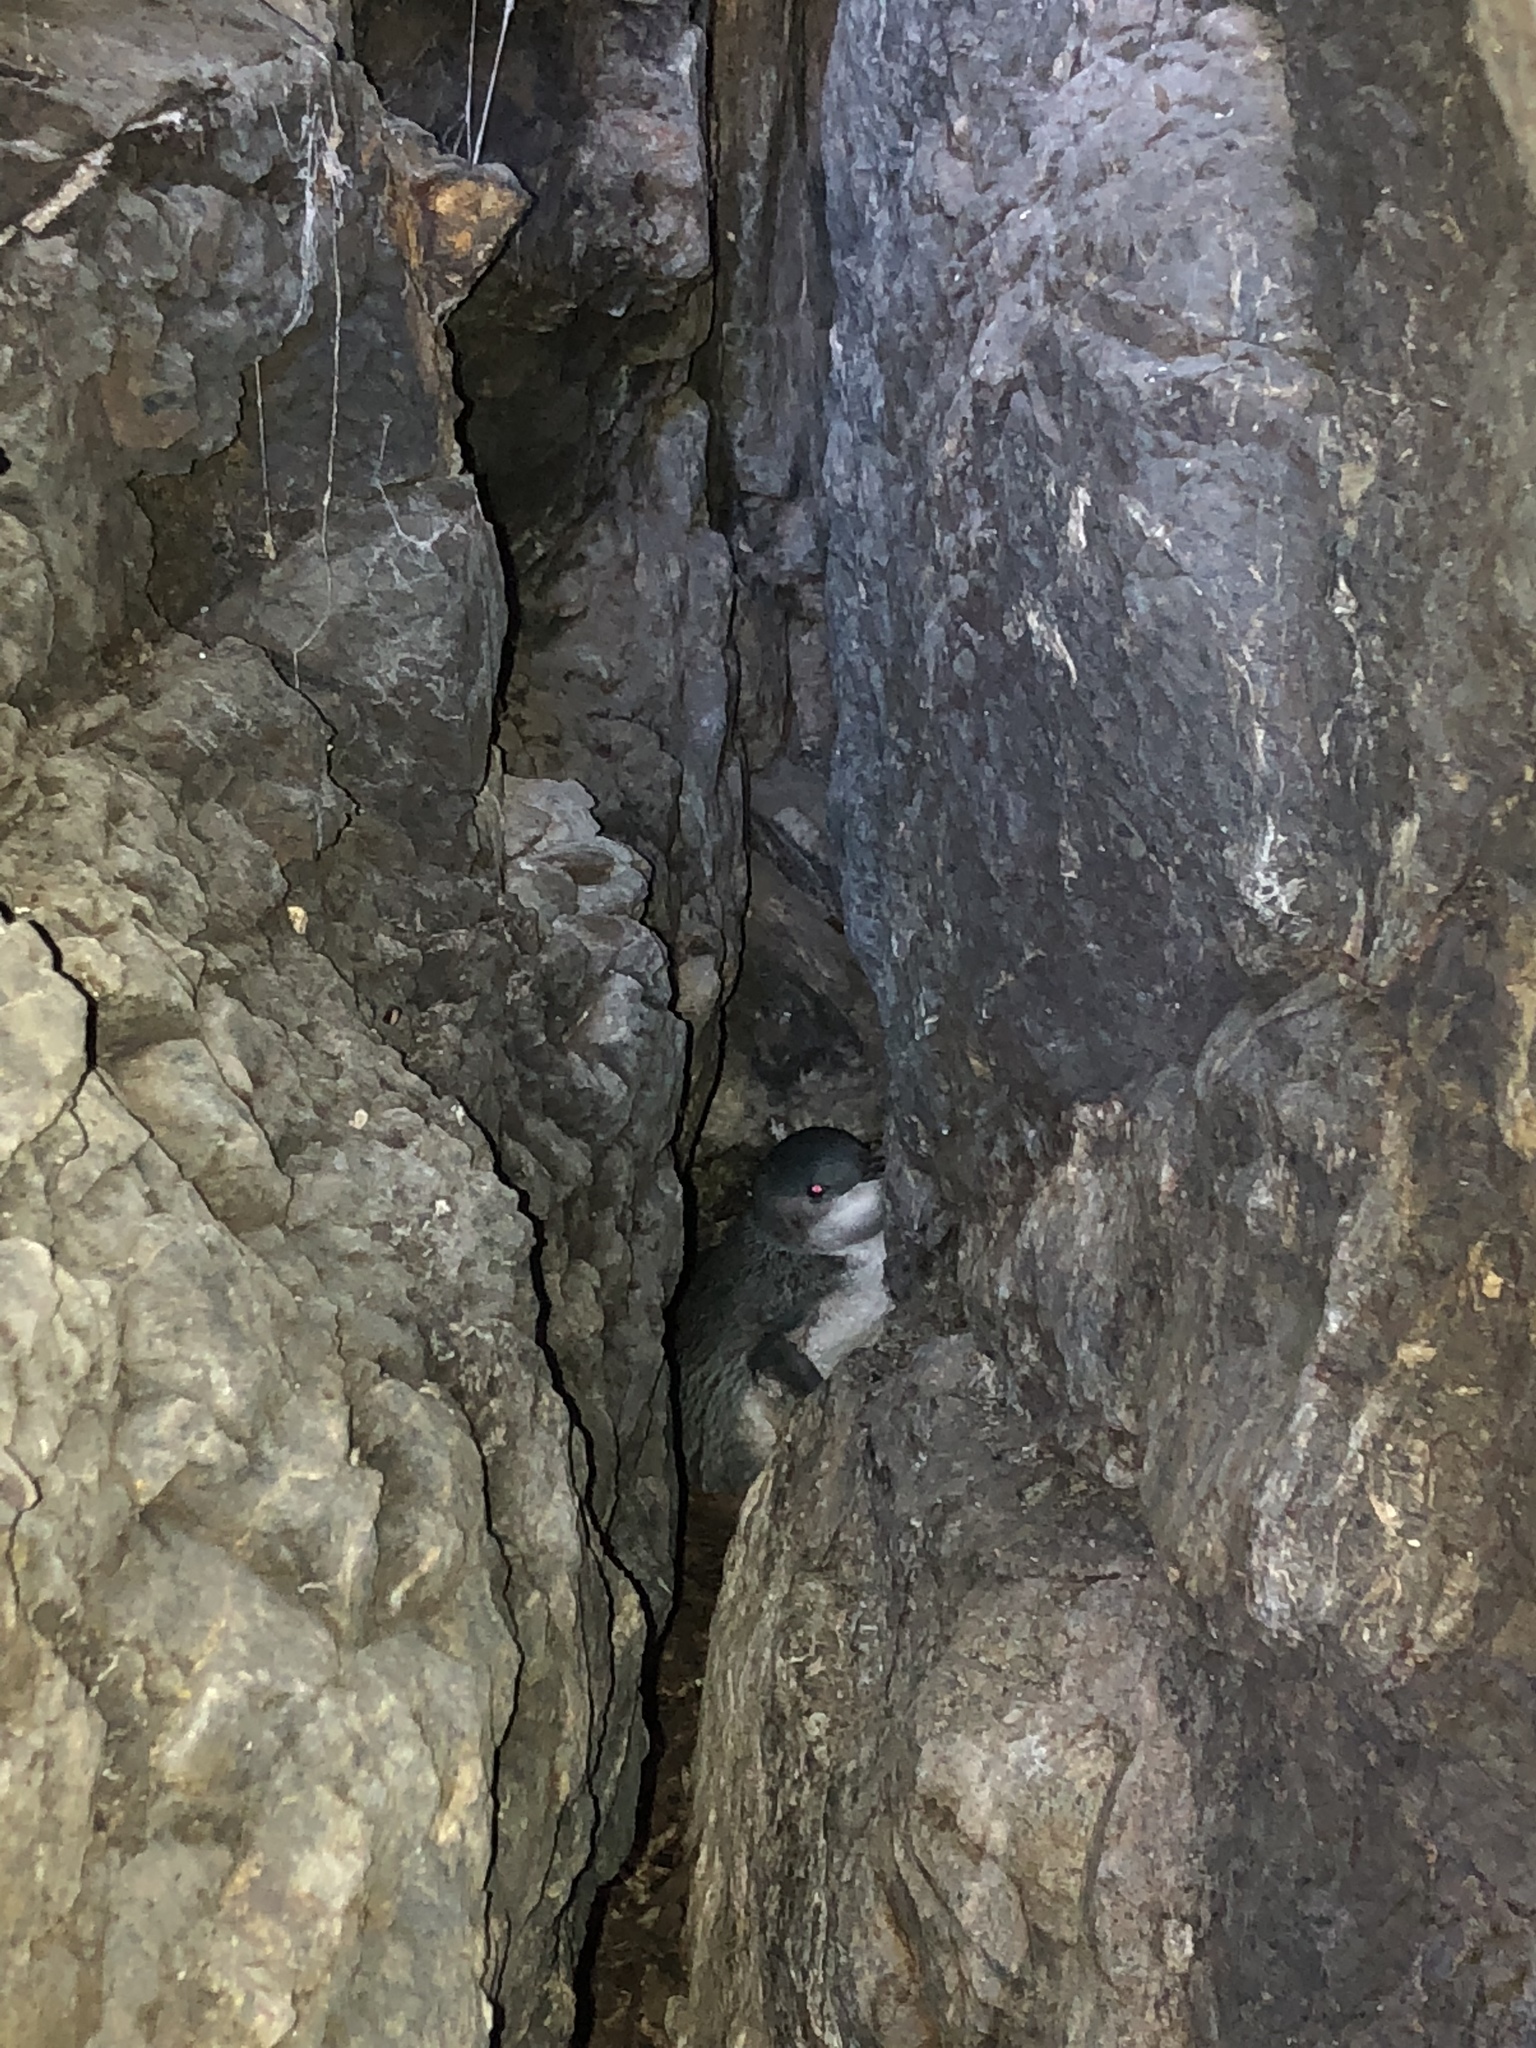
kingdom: Animalia
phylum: Chordata
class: Aves
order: Sphenisciformes
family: Spheniscidae
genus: Eudyptula
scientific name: Eudyptula minor
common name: Little penguin
